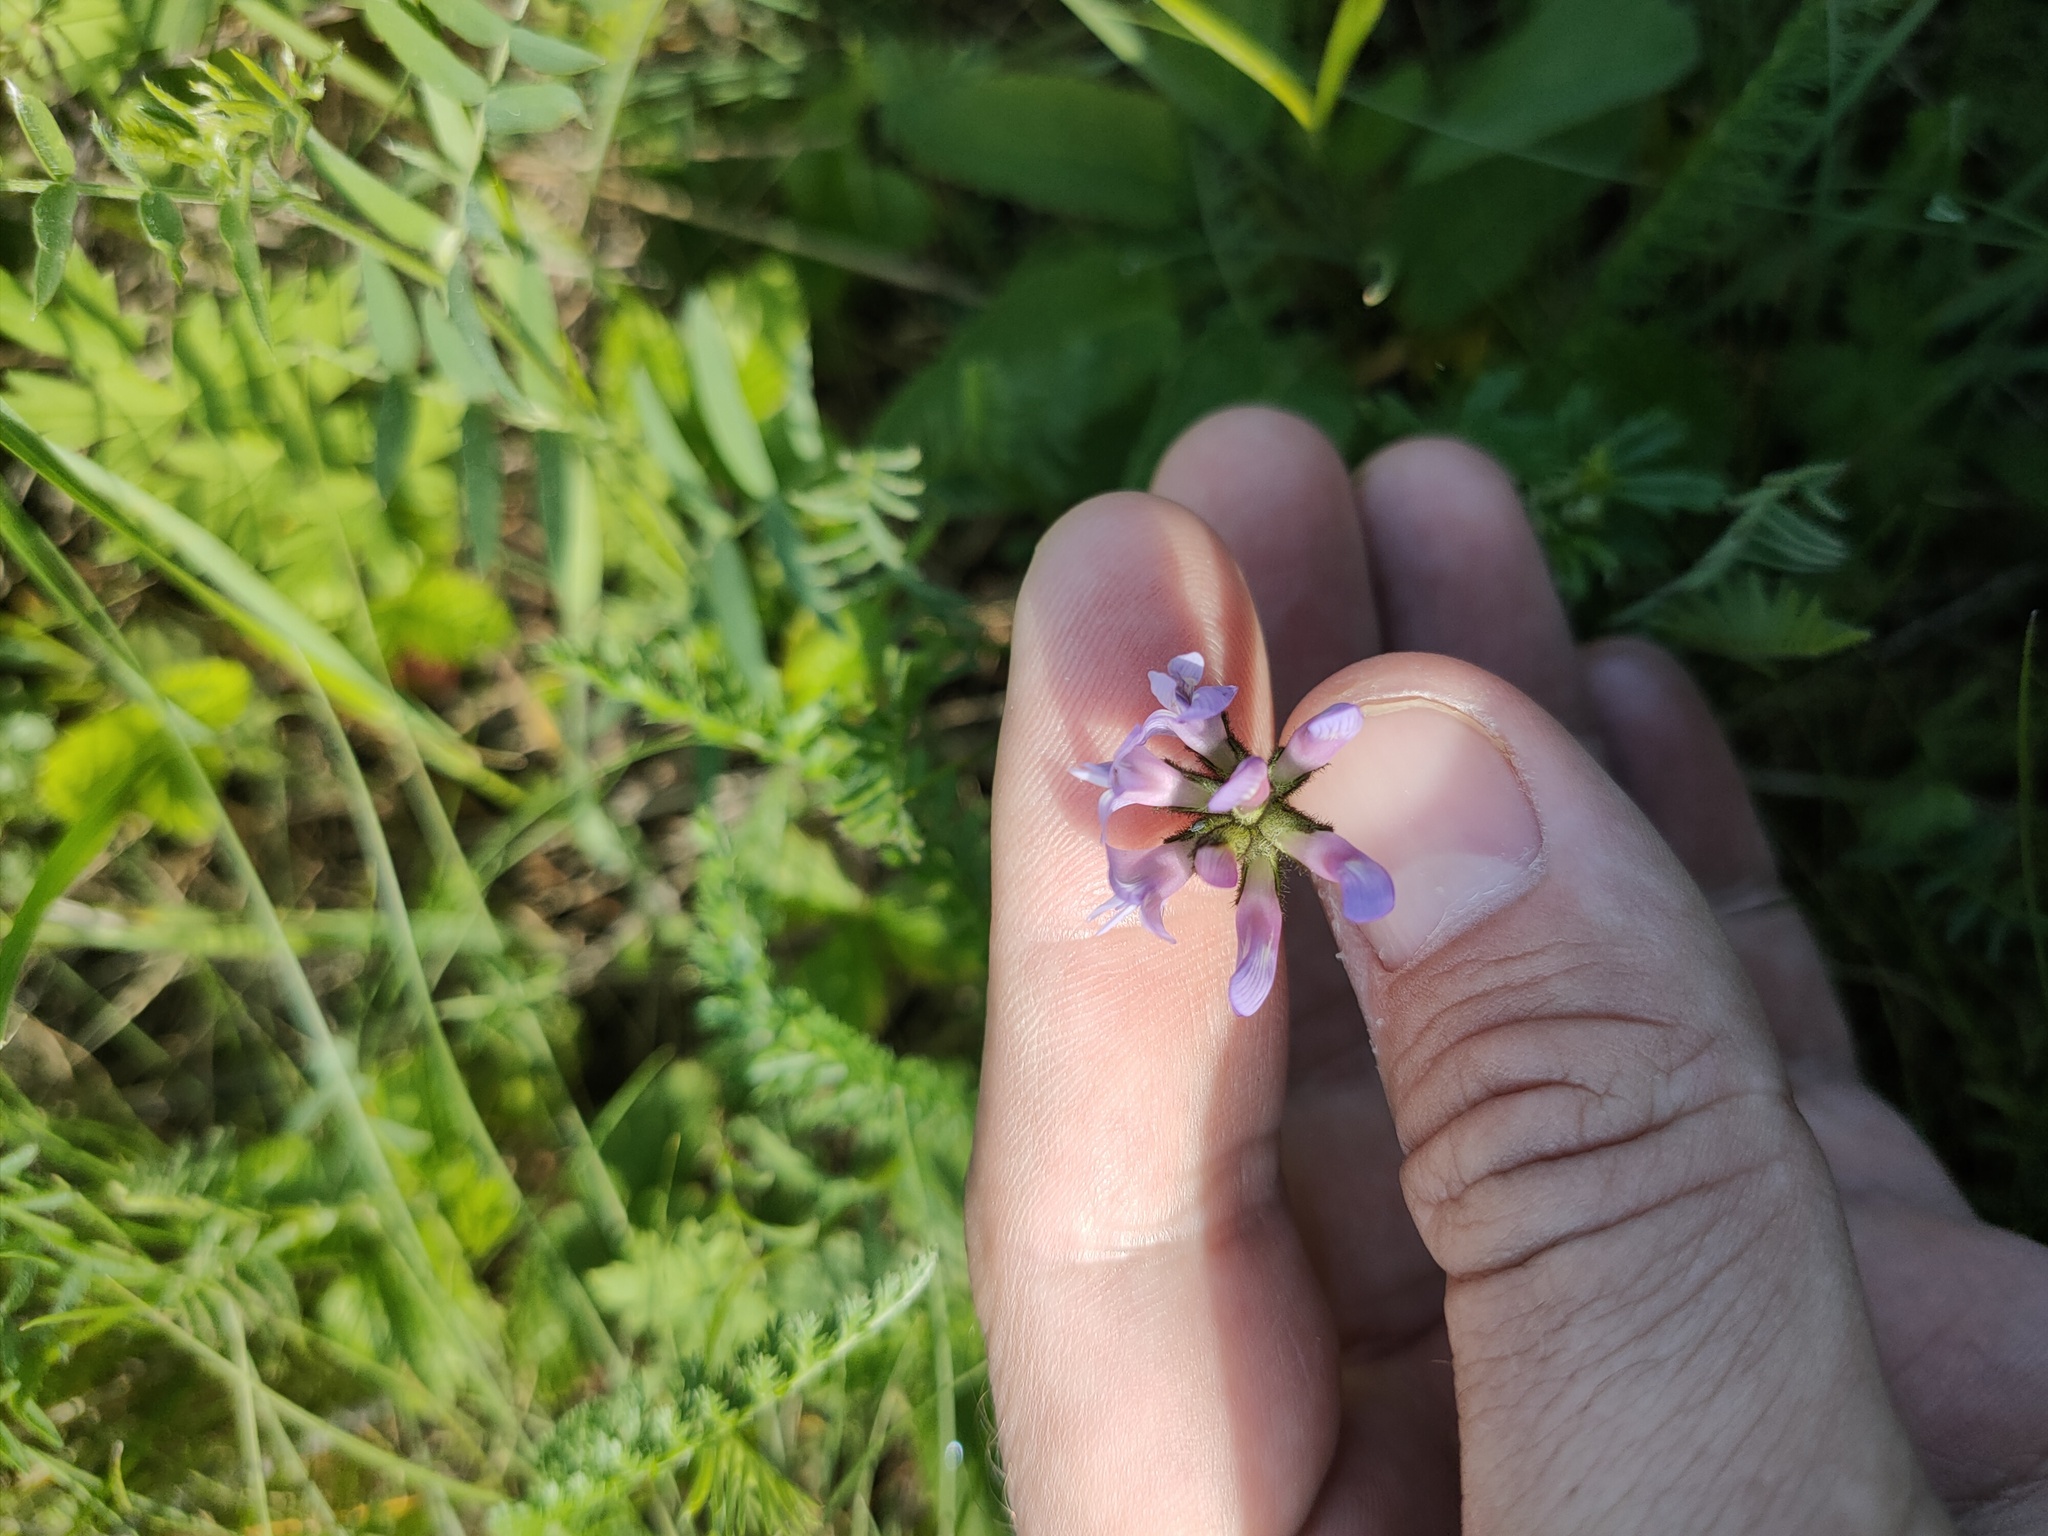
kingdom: Plantae
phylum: Tracheophyta
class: Magnoliopsida
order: Fabales
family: Fabaceae
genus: Astragalus
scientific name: Astragalus danicus
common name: Purple milk-vetch
